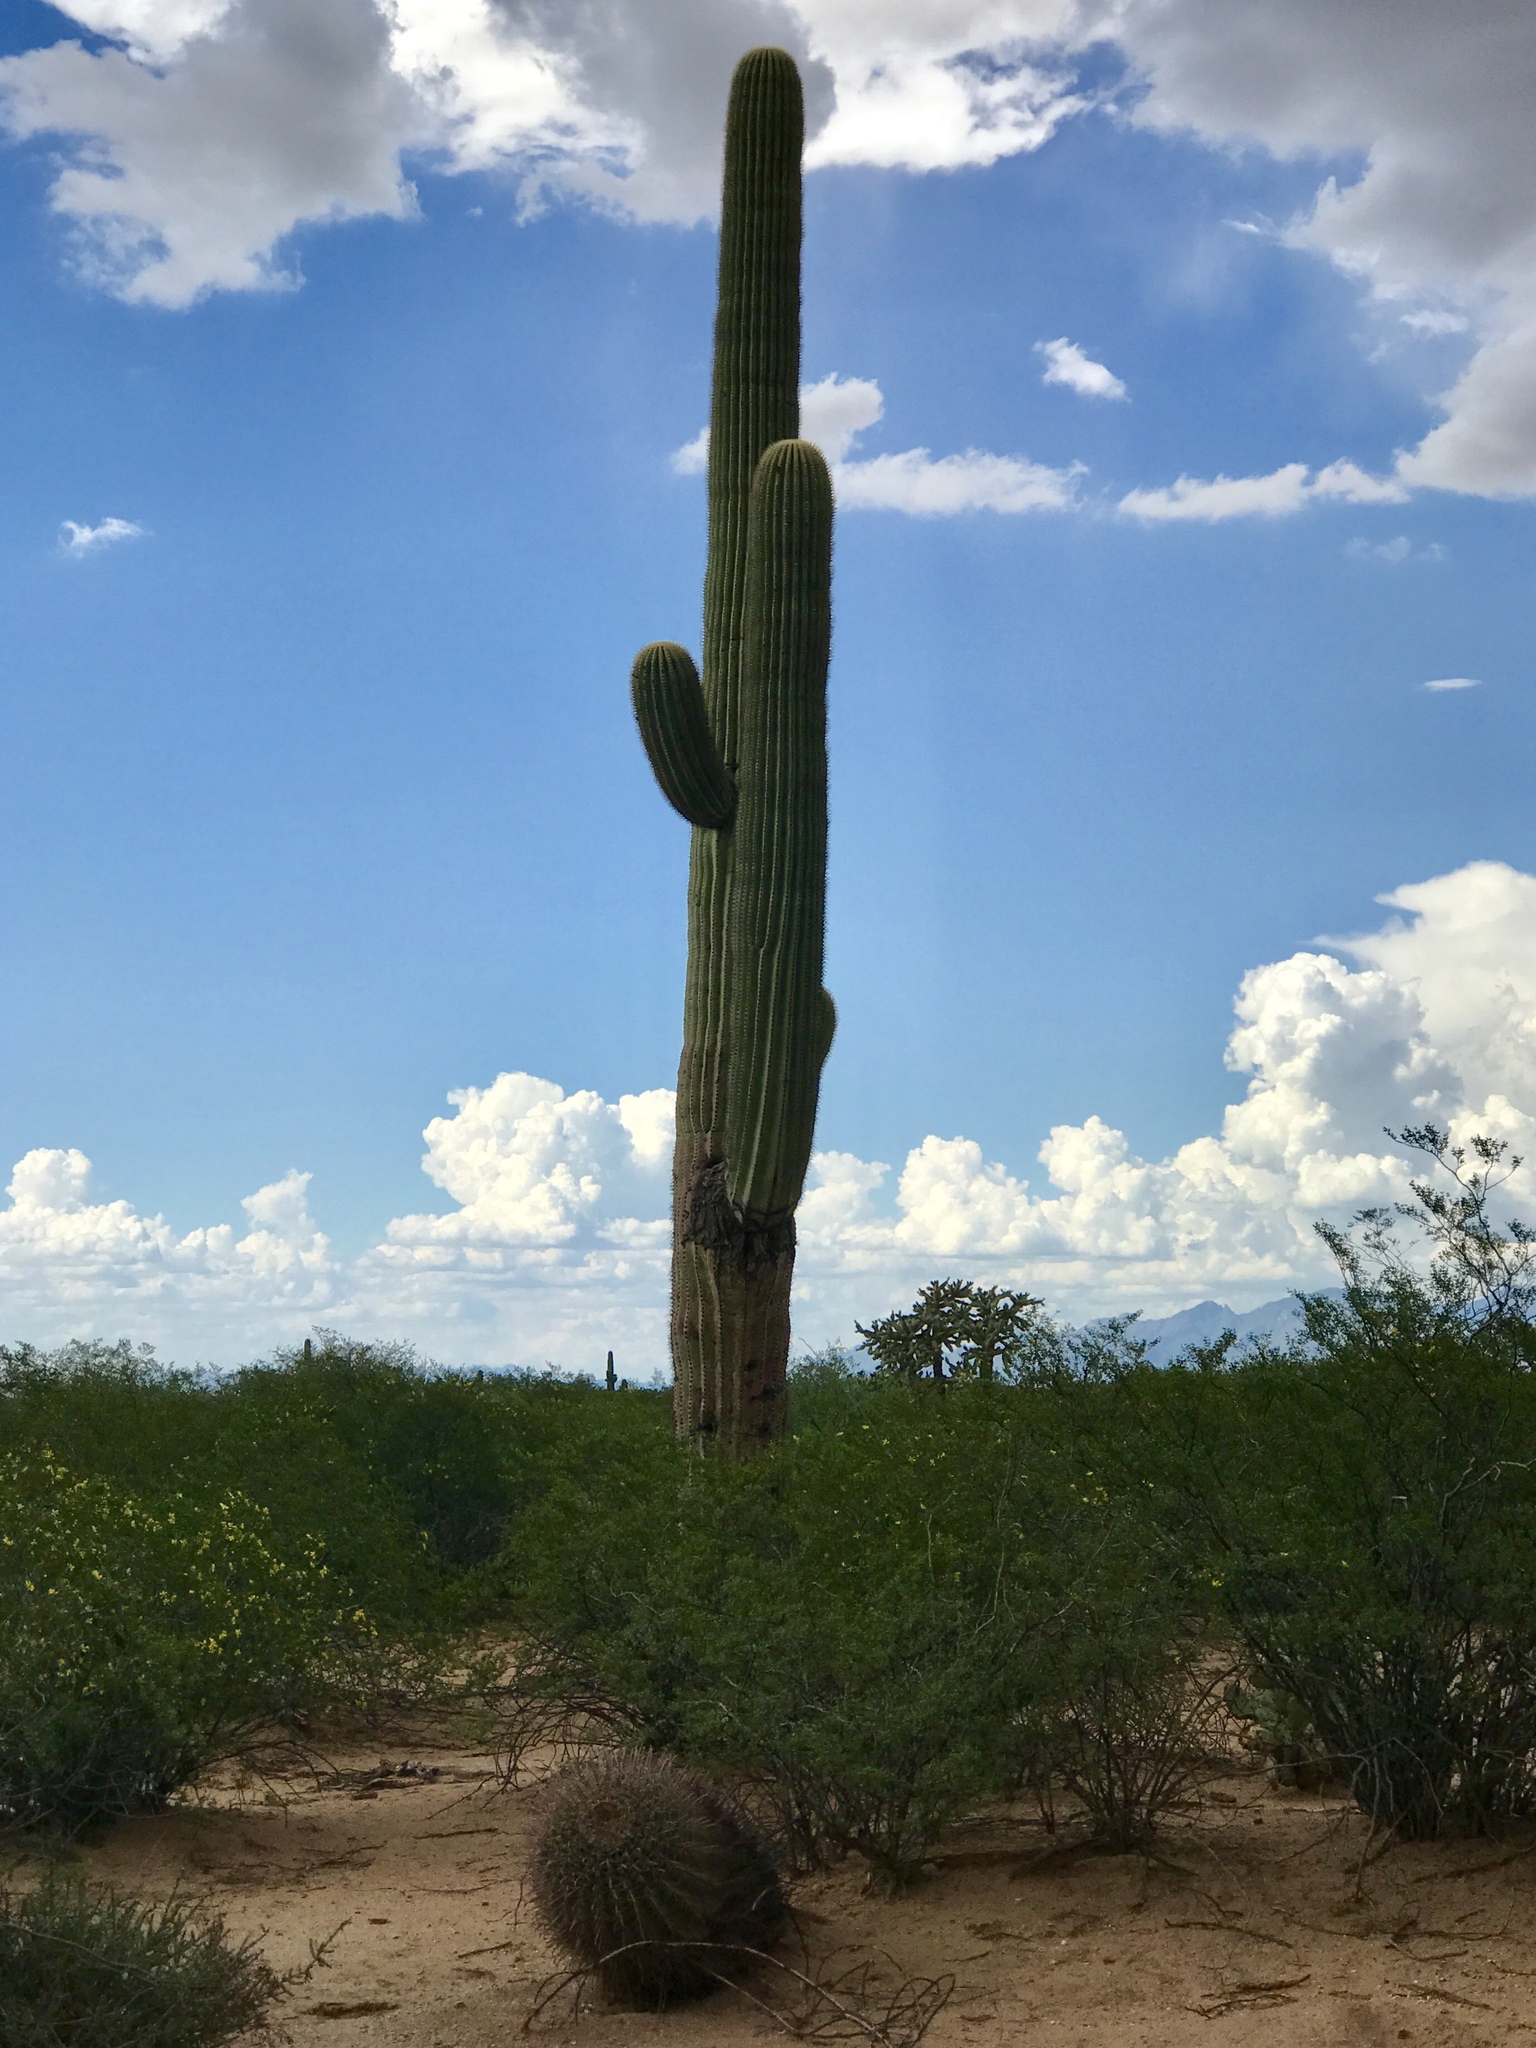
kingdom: Plantae
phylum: Tracheophyta
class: Magnoliopsida
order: Caryophyllales
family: Cactaceae
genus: Carnegiea
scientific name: Carnegiea gigantea
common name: Saguaro
